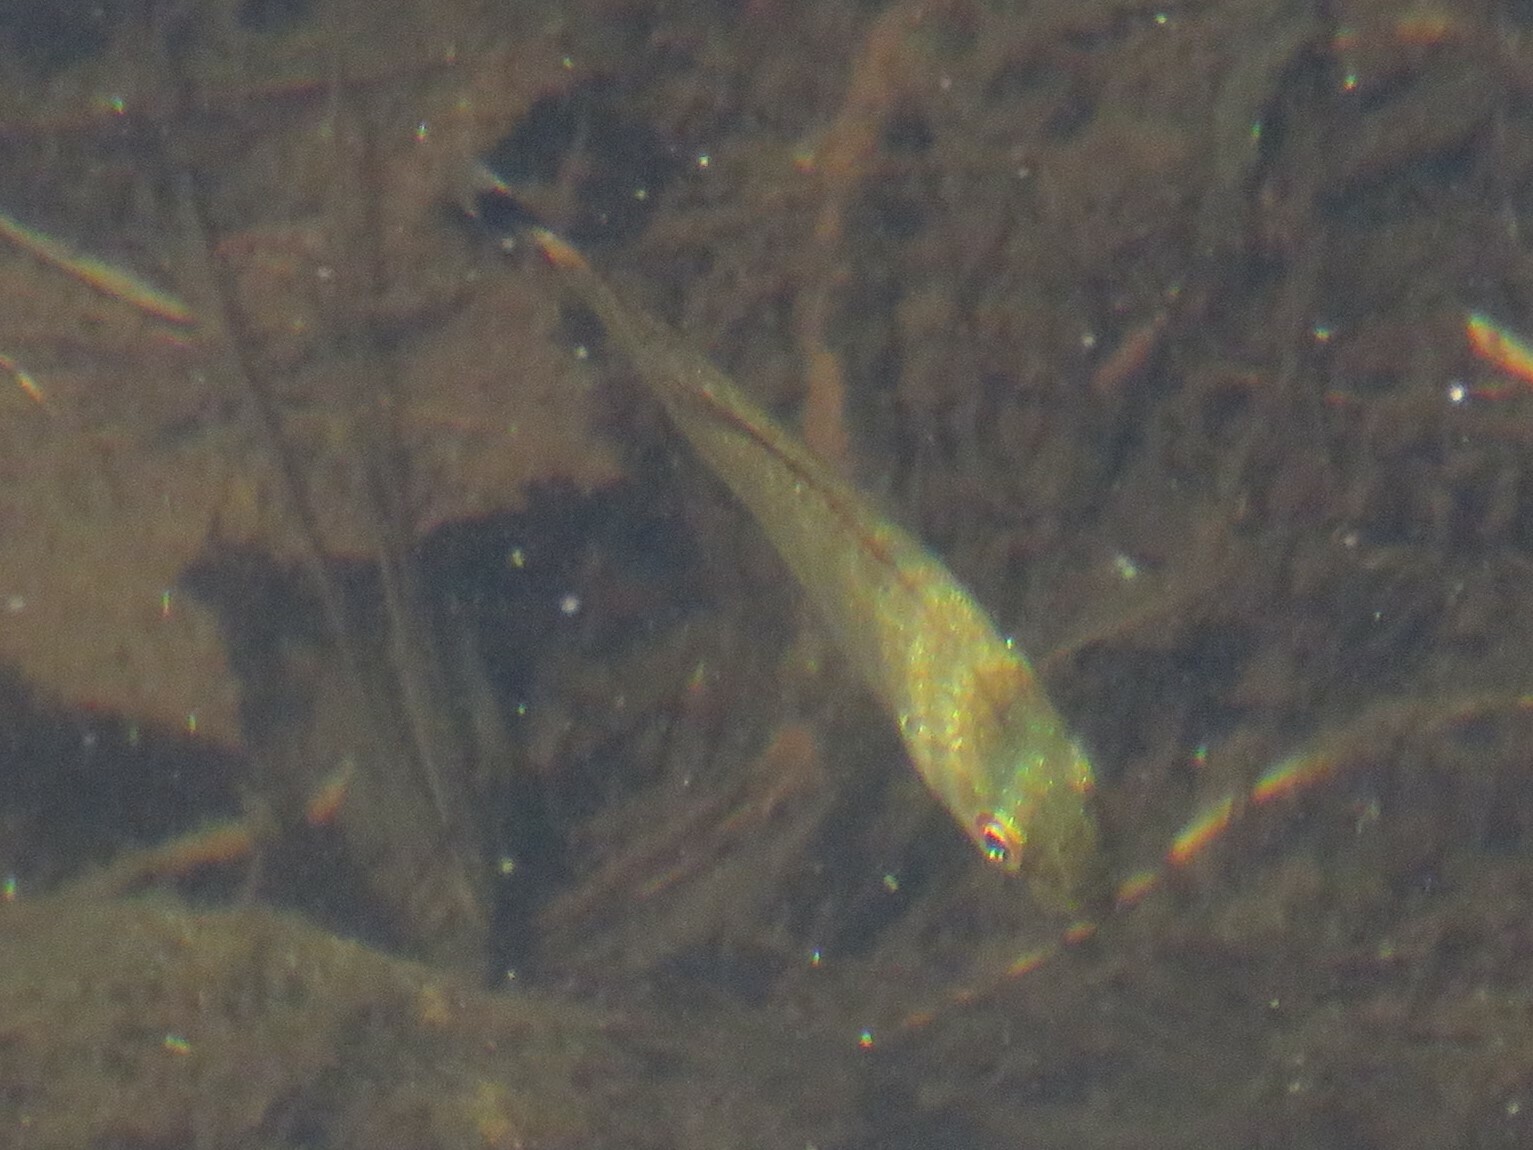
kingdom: Animalia
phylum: Chordata
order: Perciformes
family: Centrarchidae
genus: Micropterus
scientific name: Micropterus dolomieu
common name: Smallmouth bass
